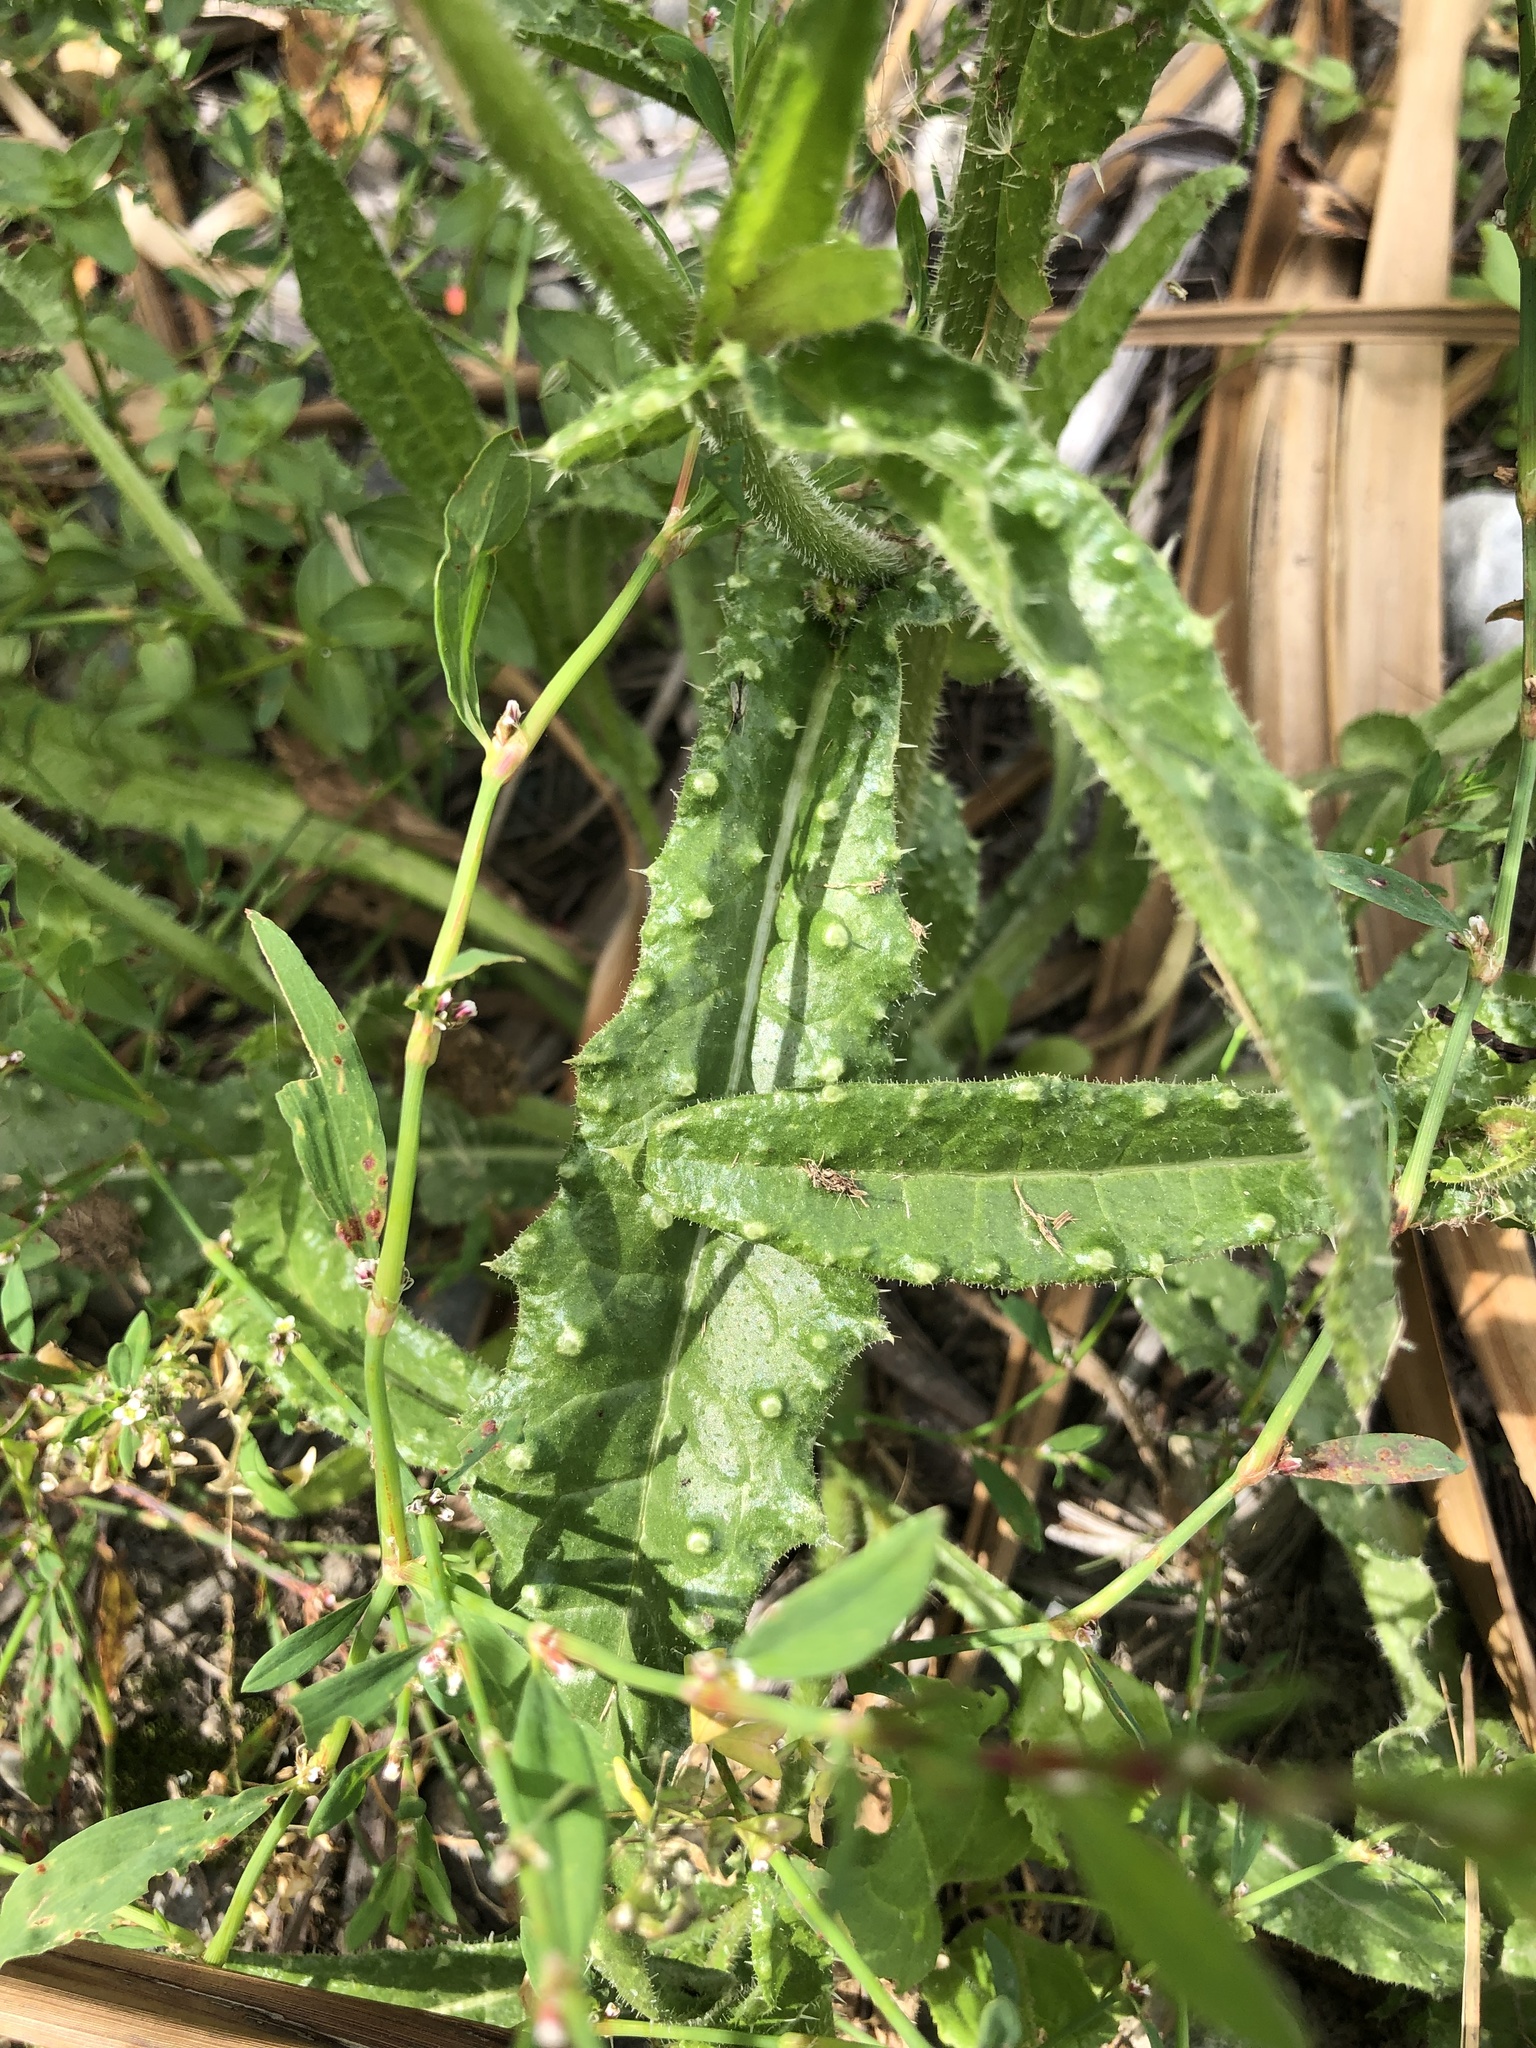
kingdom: Plantae
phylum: Tracheophyta
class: Magnoliopsida
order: Asterales
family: Asteraceae
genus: Helminthotheca
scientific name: Helminthotheca echioides
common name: Ox-tongue
